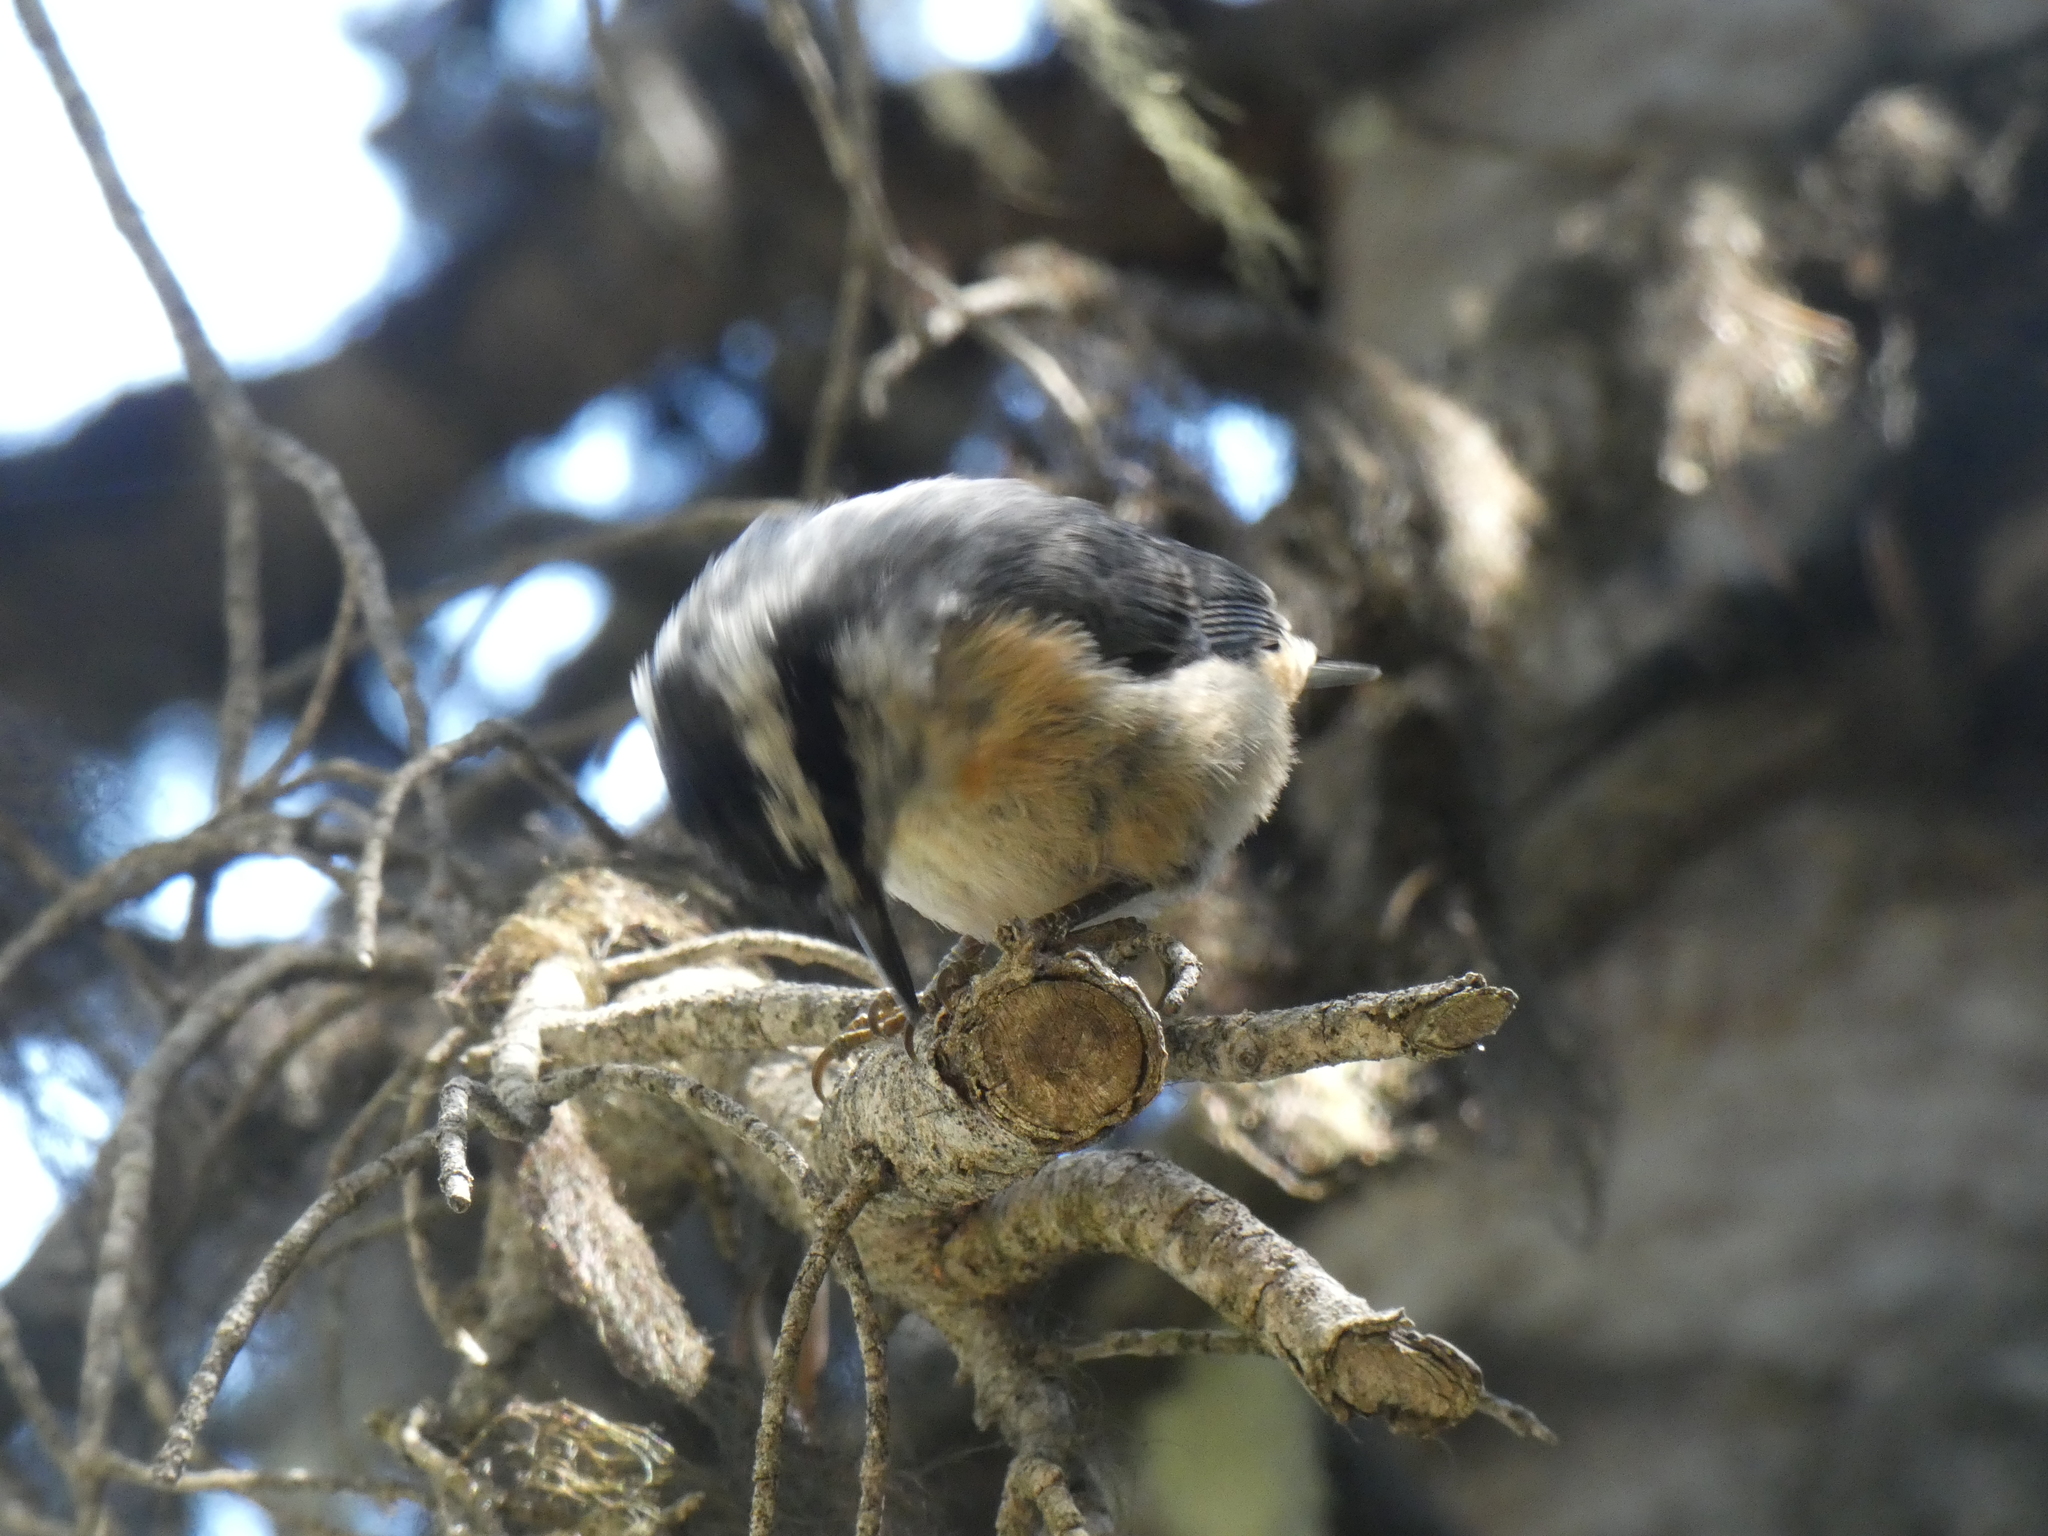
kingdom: Animalia
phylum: Chordata
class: Aves
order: Passeriformes
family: Sittidae
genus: Sitta
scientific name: Sitta canadensis
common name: Red-breasted nuthatch
